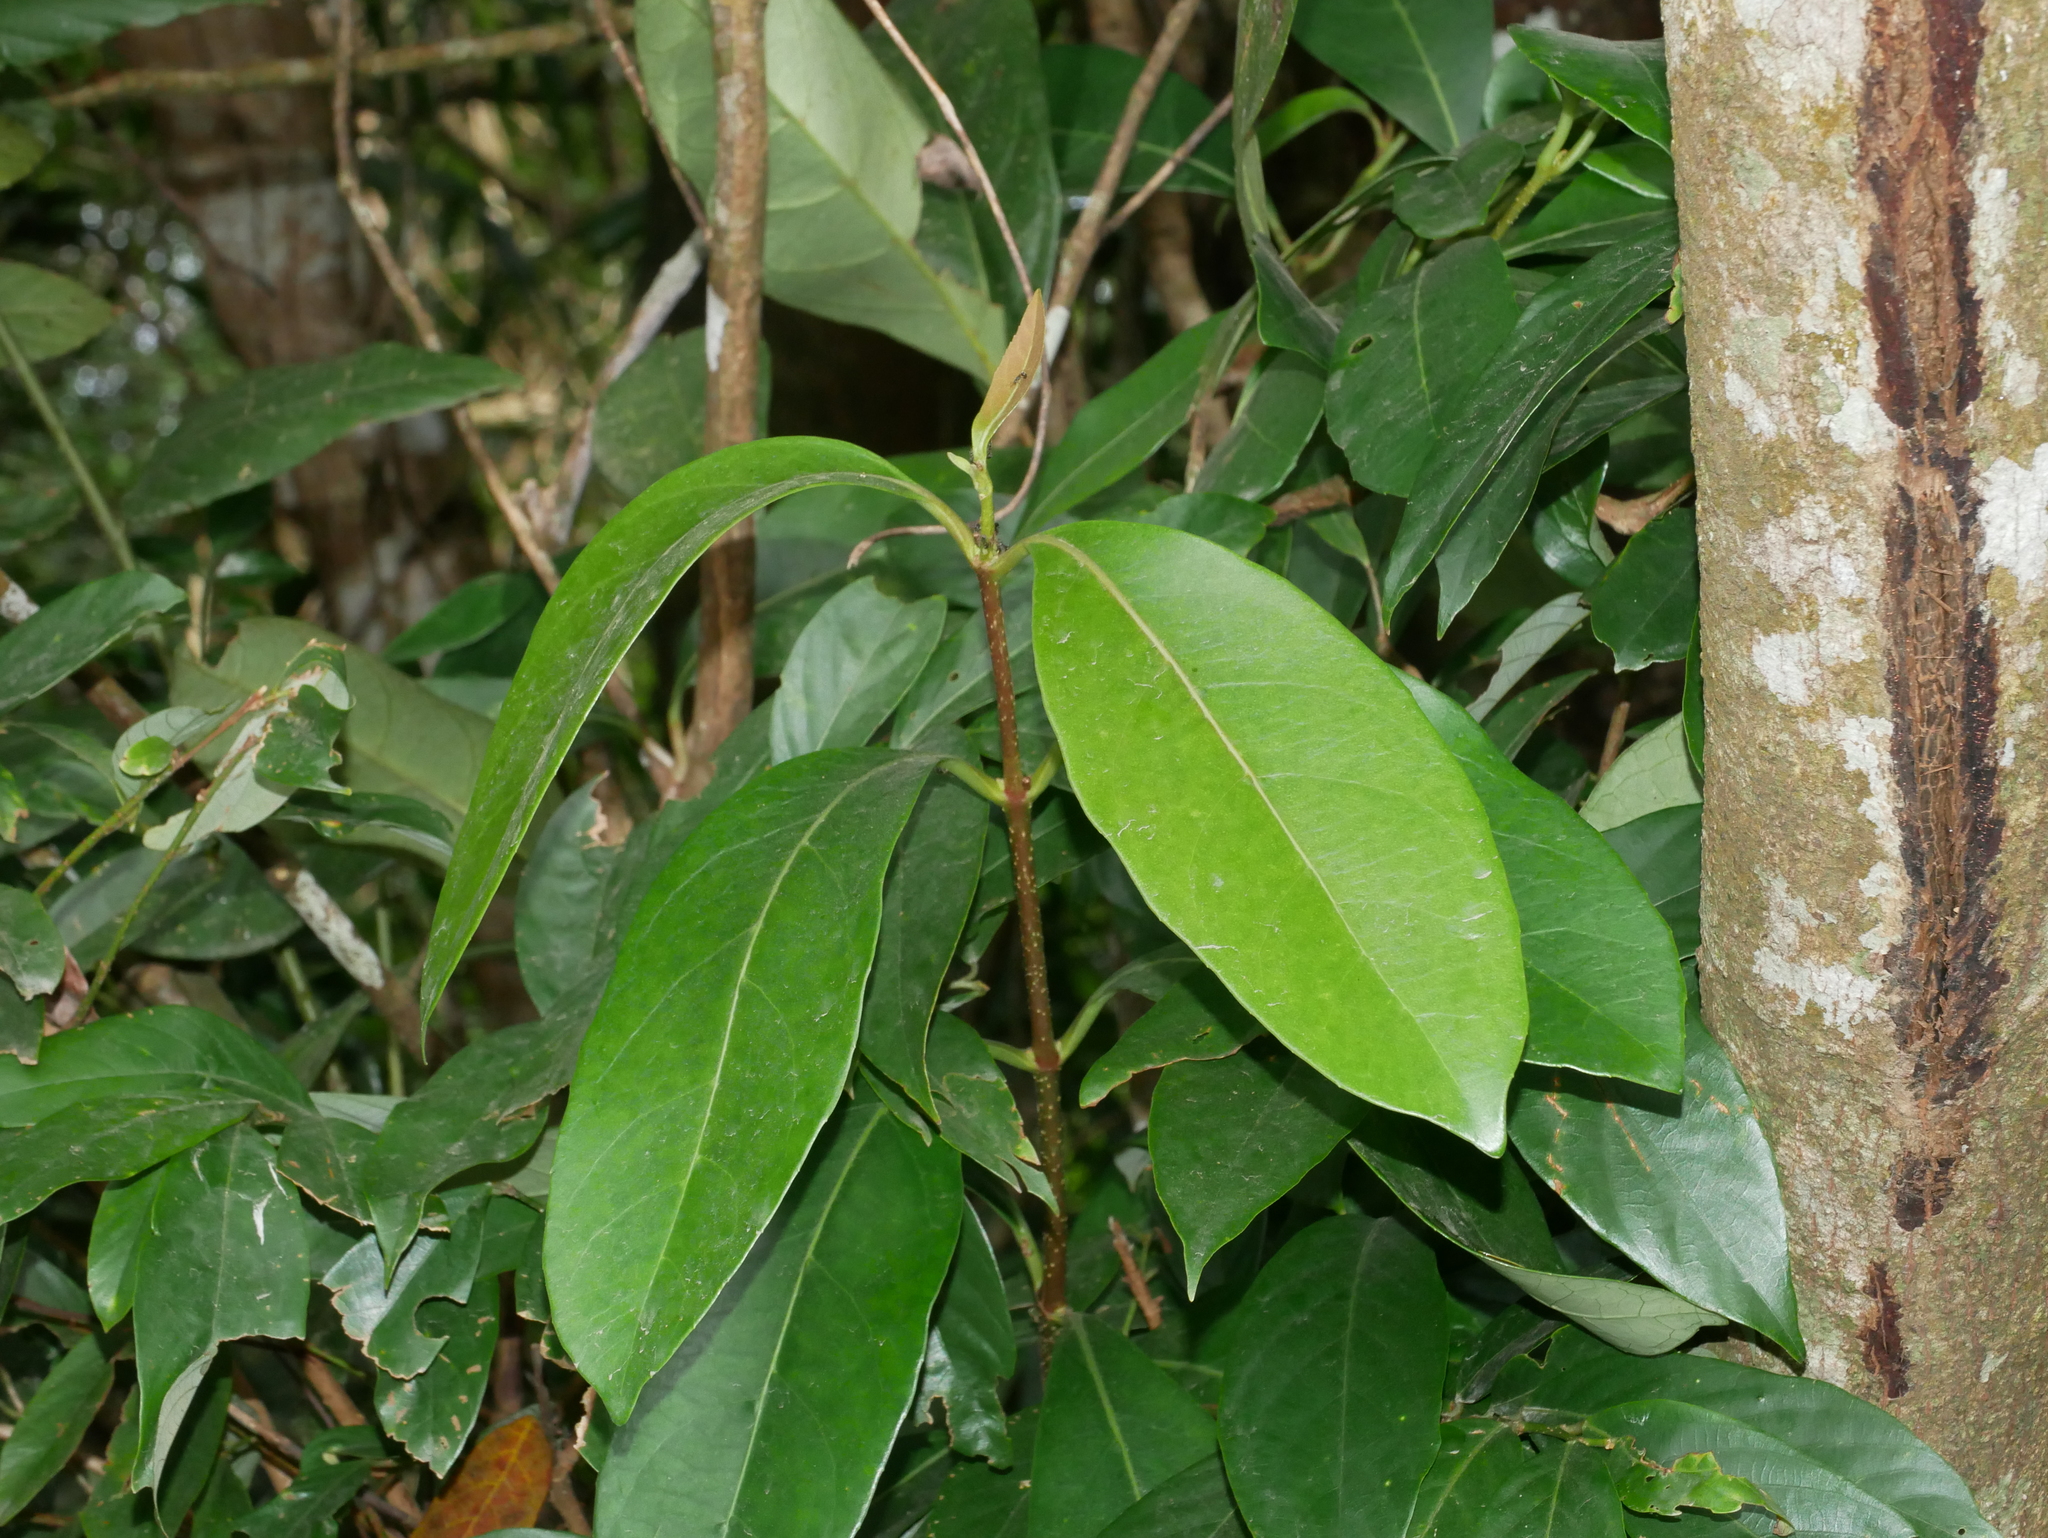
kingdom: Plantae
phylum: Tracheophyta
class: Magnoliopsida
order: Dipsacales
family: Viburnaceae
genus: Viburnum
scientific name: Viburnum odoratissimum
